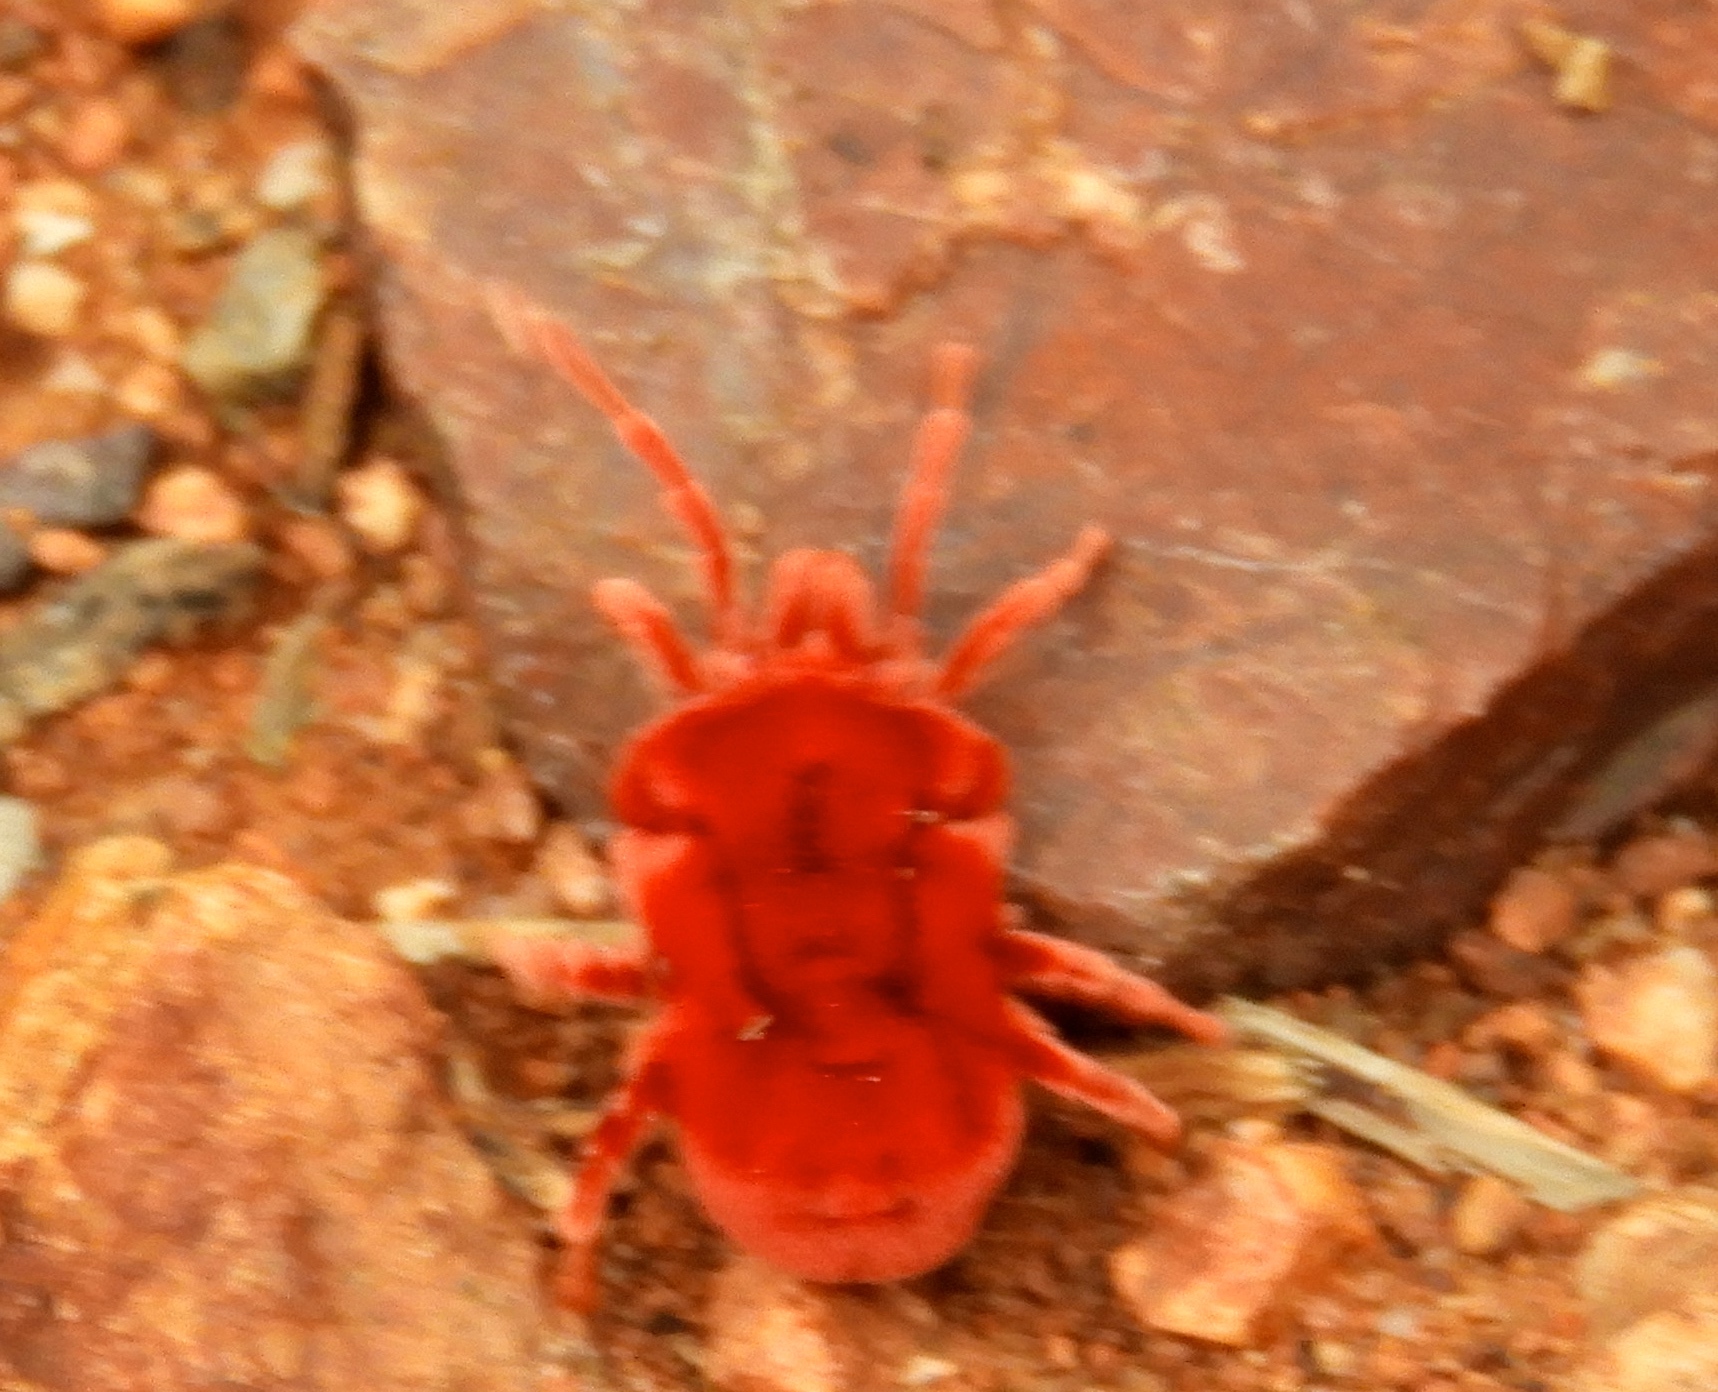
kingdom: Animalia
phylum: Arthropoda
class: Arachnida
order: Trombidiformes
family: Leeuwenhoekiidae
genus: Dinothrombium
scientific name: Dinothrombium
